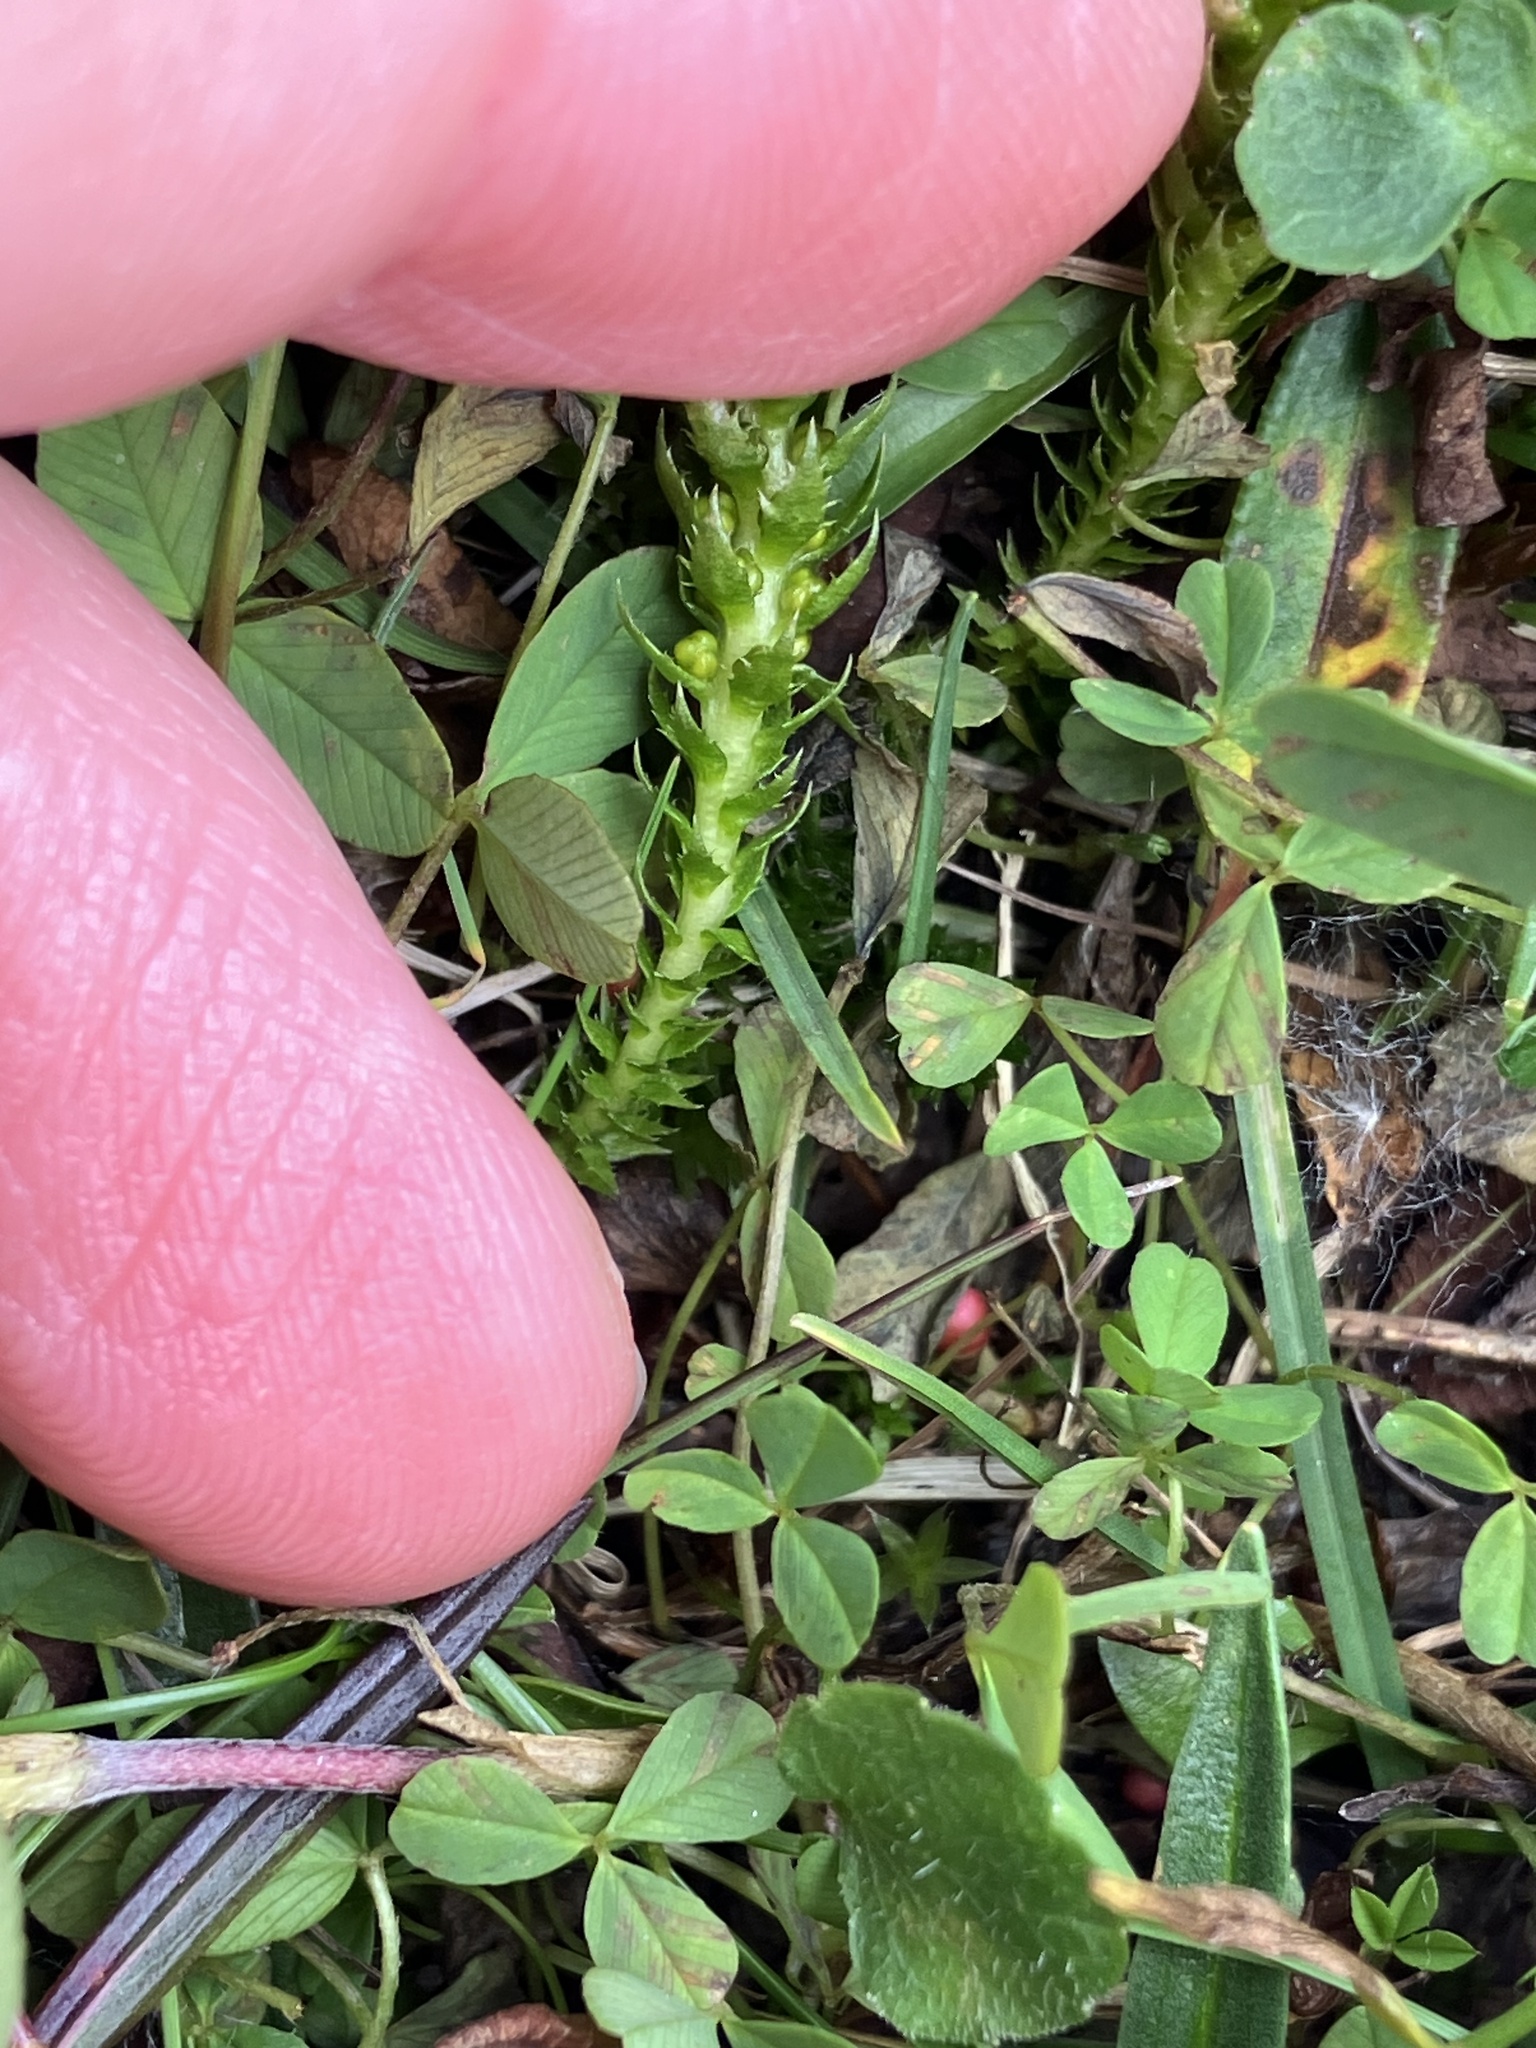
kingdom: Plantae
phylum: Tracheophyta
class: Lycopodiopsida
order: Selaginellales
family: Selaginellaceae
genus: Selaginella
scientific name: Selaginella selaginoides
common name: Prickly mountain-moss
